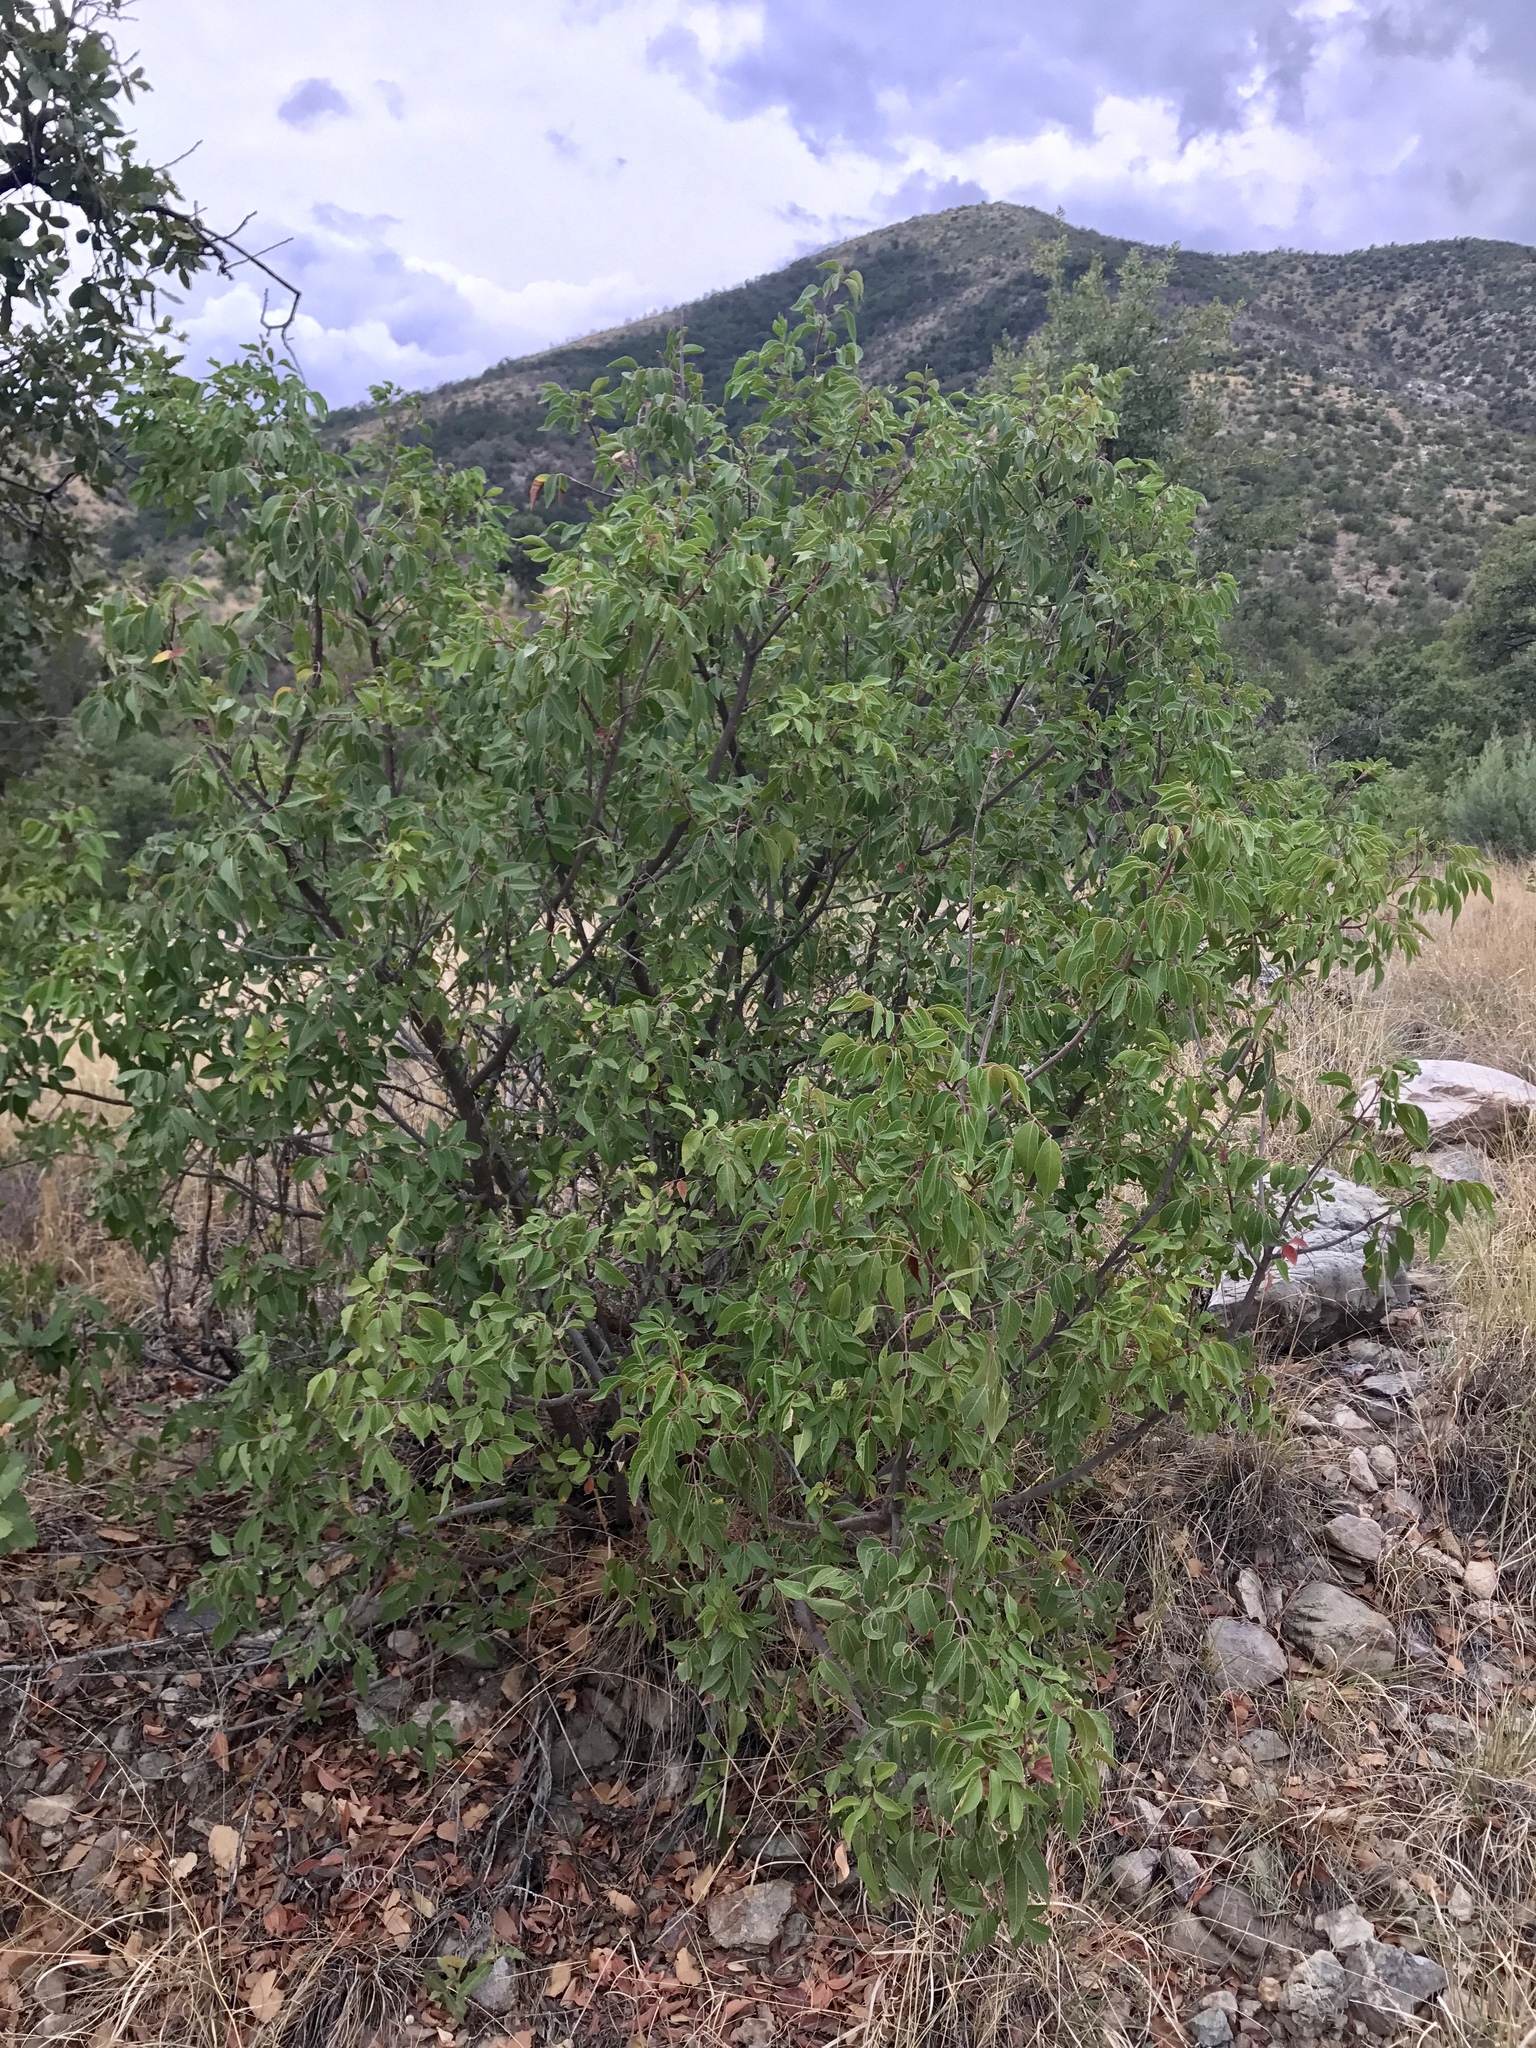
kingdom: Plantae
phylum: Tracheophyta
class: Magnoliopsida
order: Sapindales
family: Anacardiaceae
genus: Rhus
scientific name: Rhus virens
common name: Evergreen sumac
